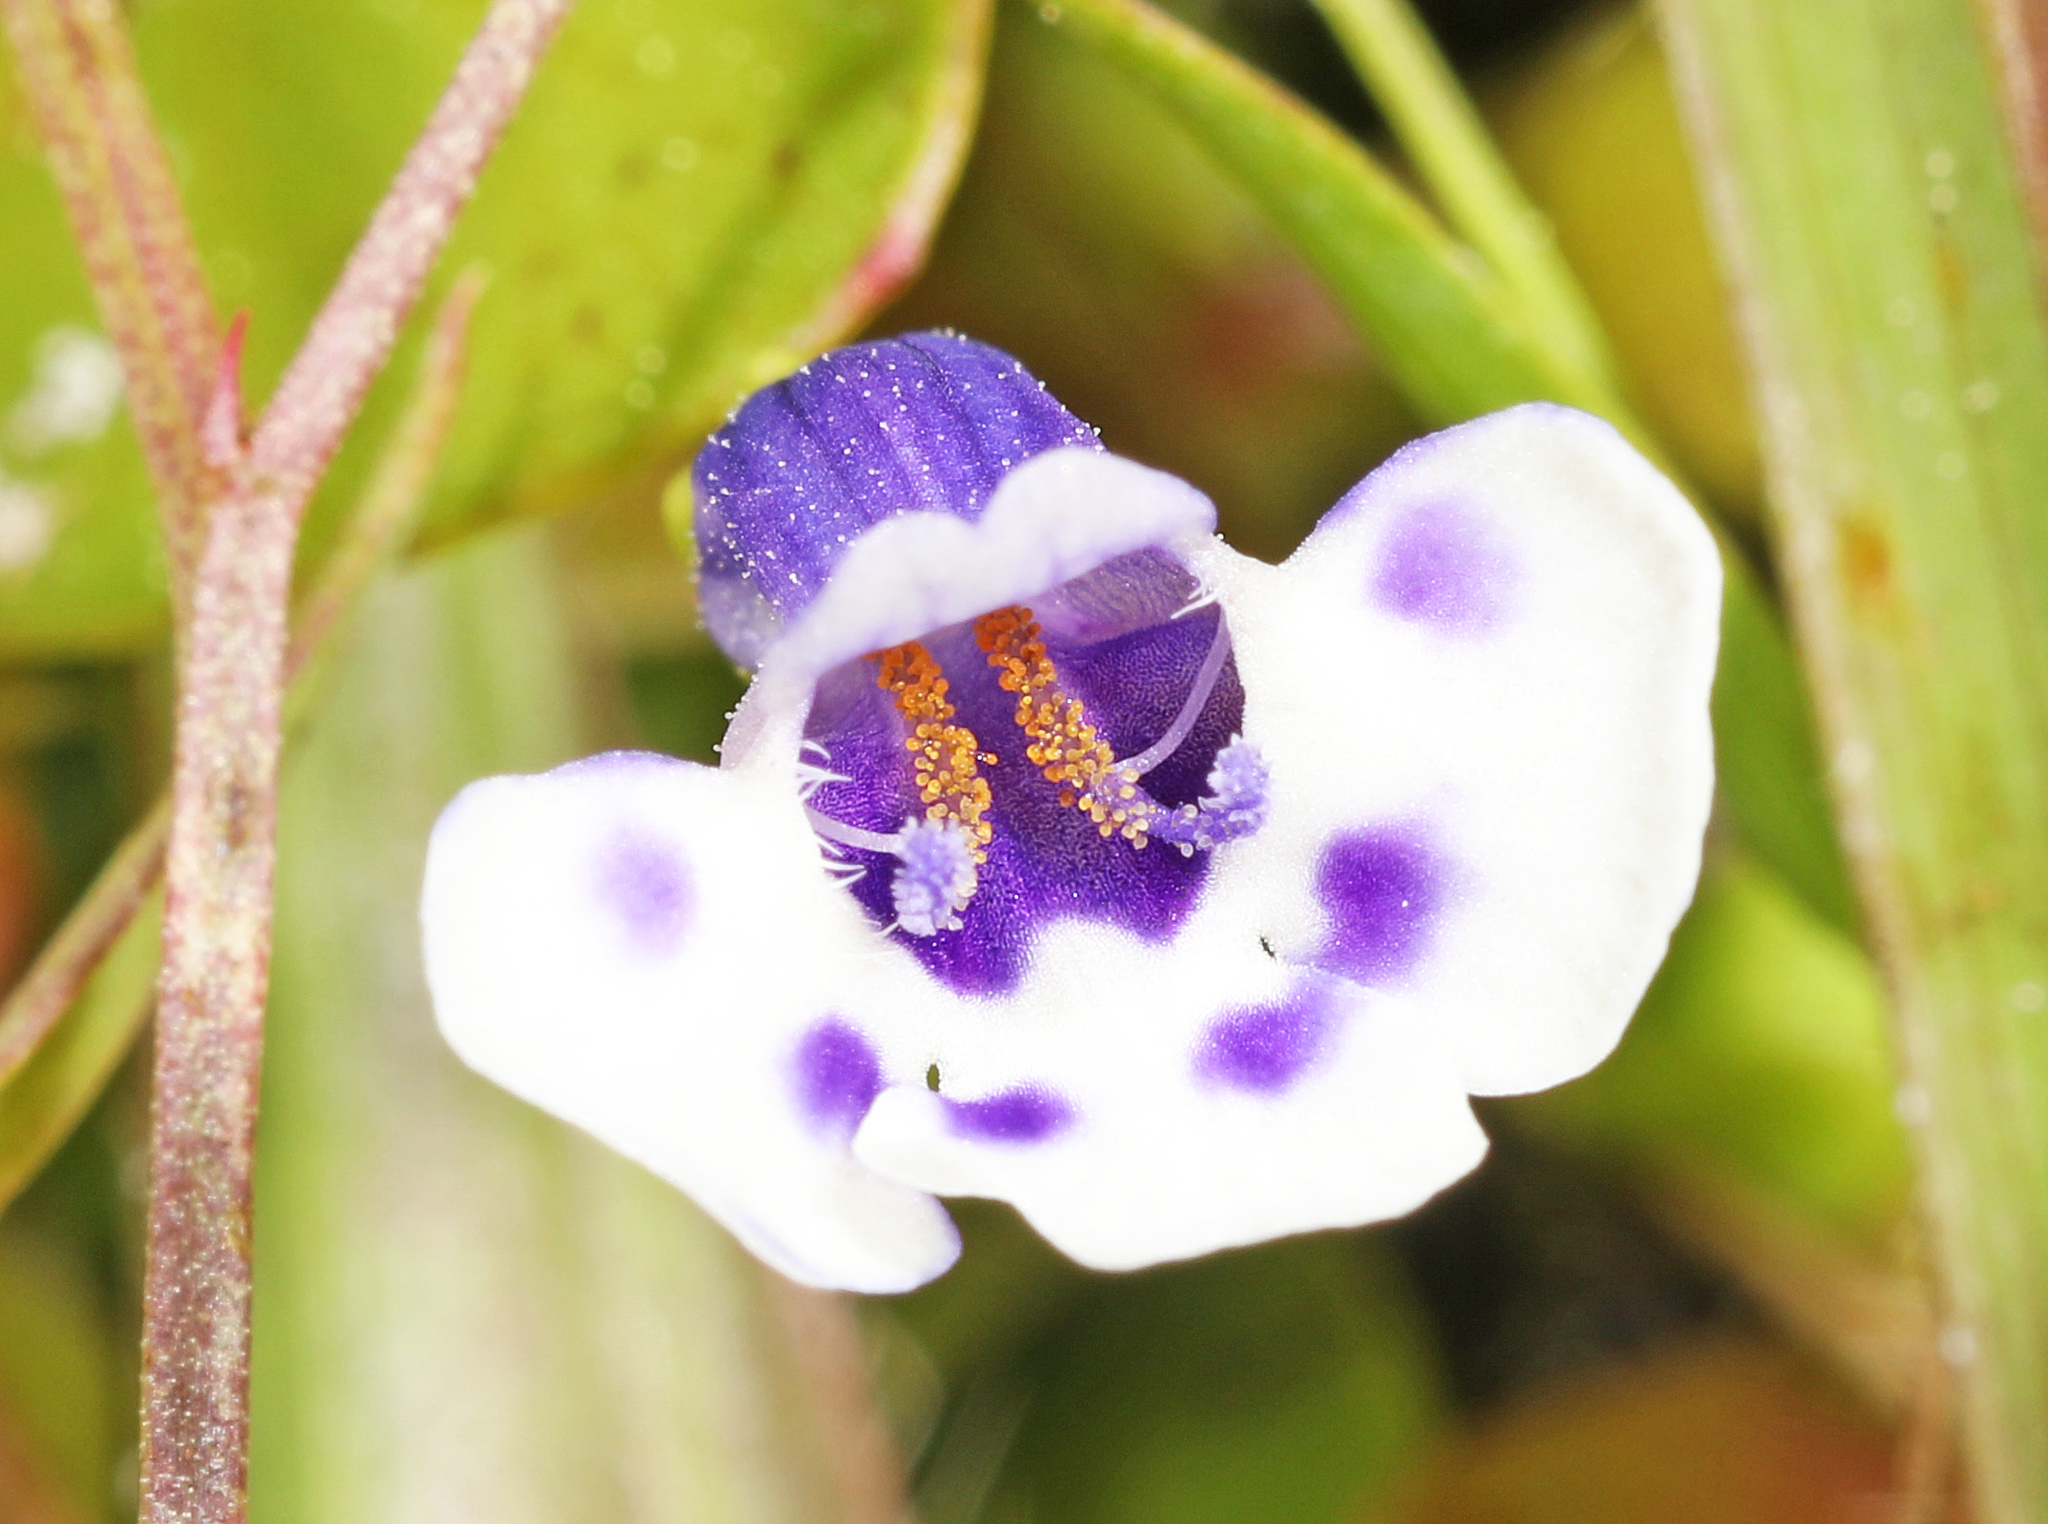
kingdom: Plantae
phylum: Tracheophyta
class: Magnoliopsida
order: Lamiales
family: Linderniaceae
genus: Lindernia
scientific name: Lindernia grandiflora
